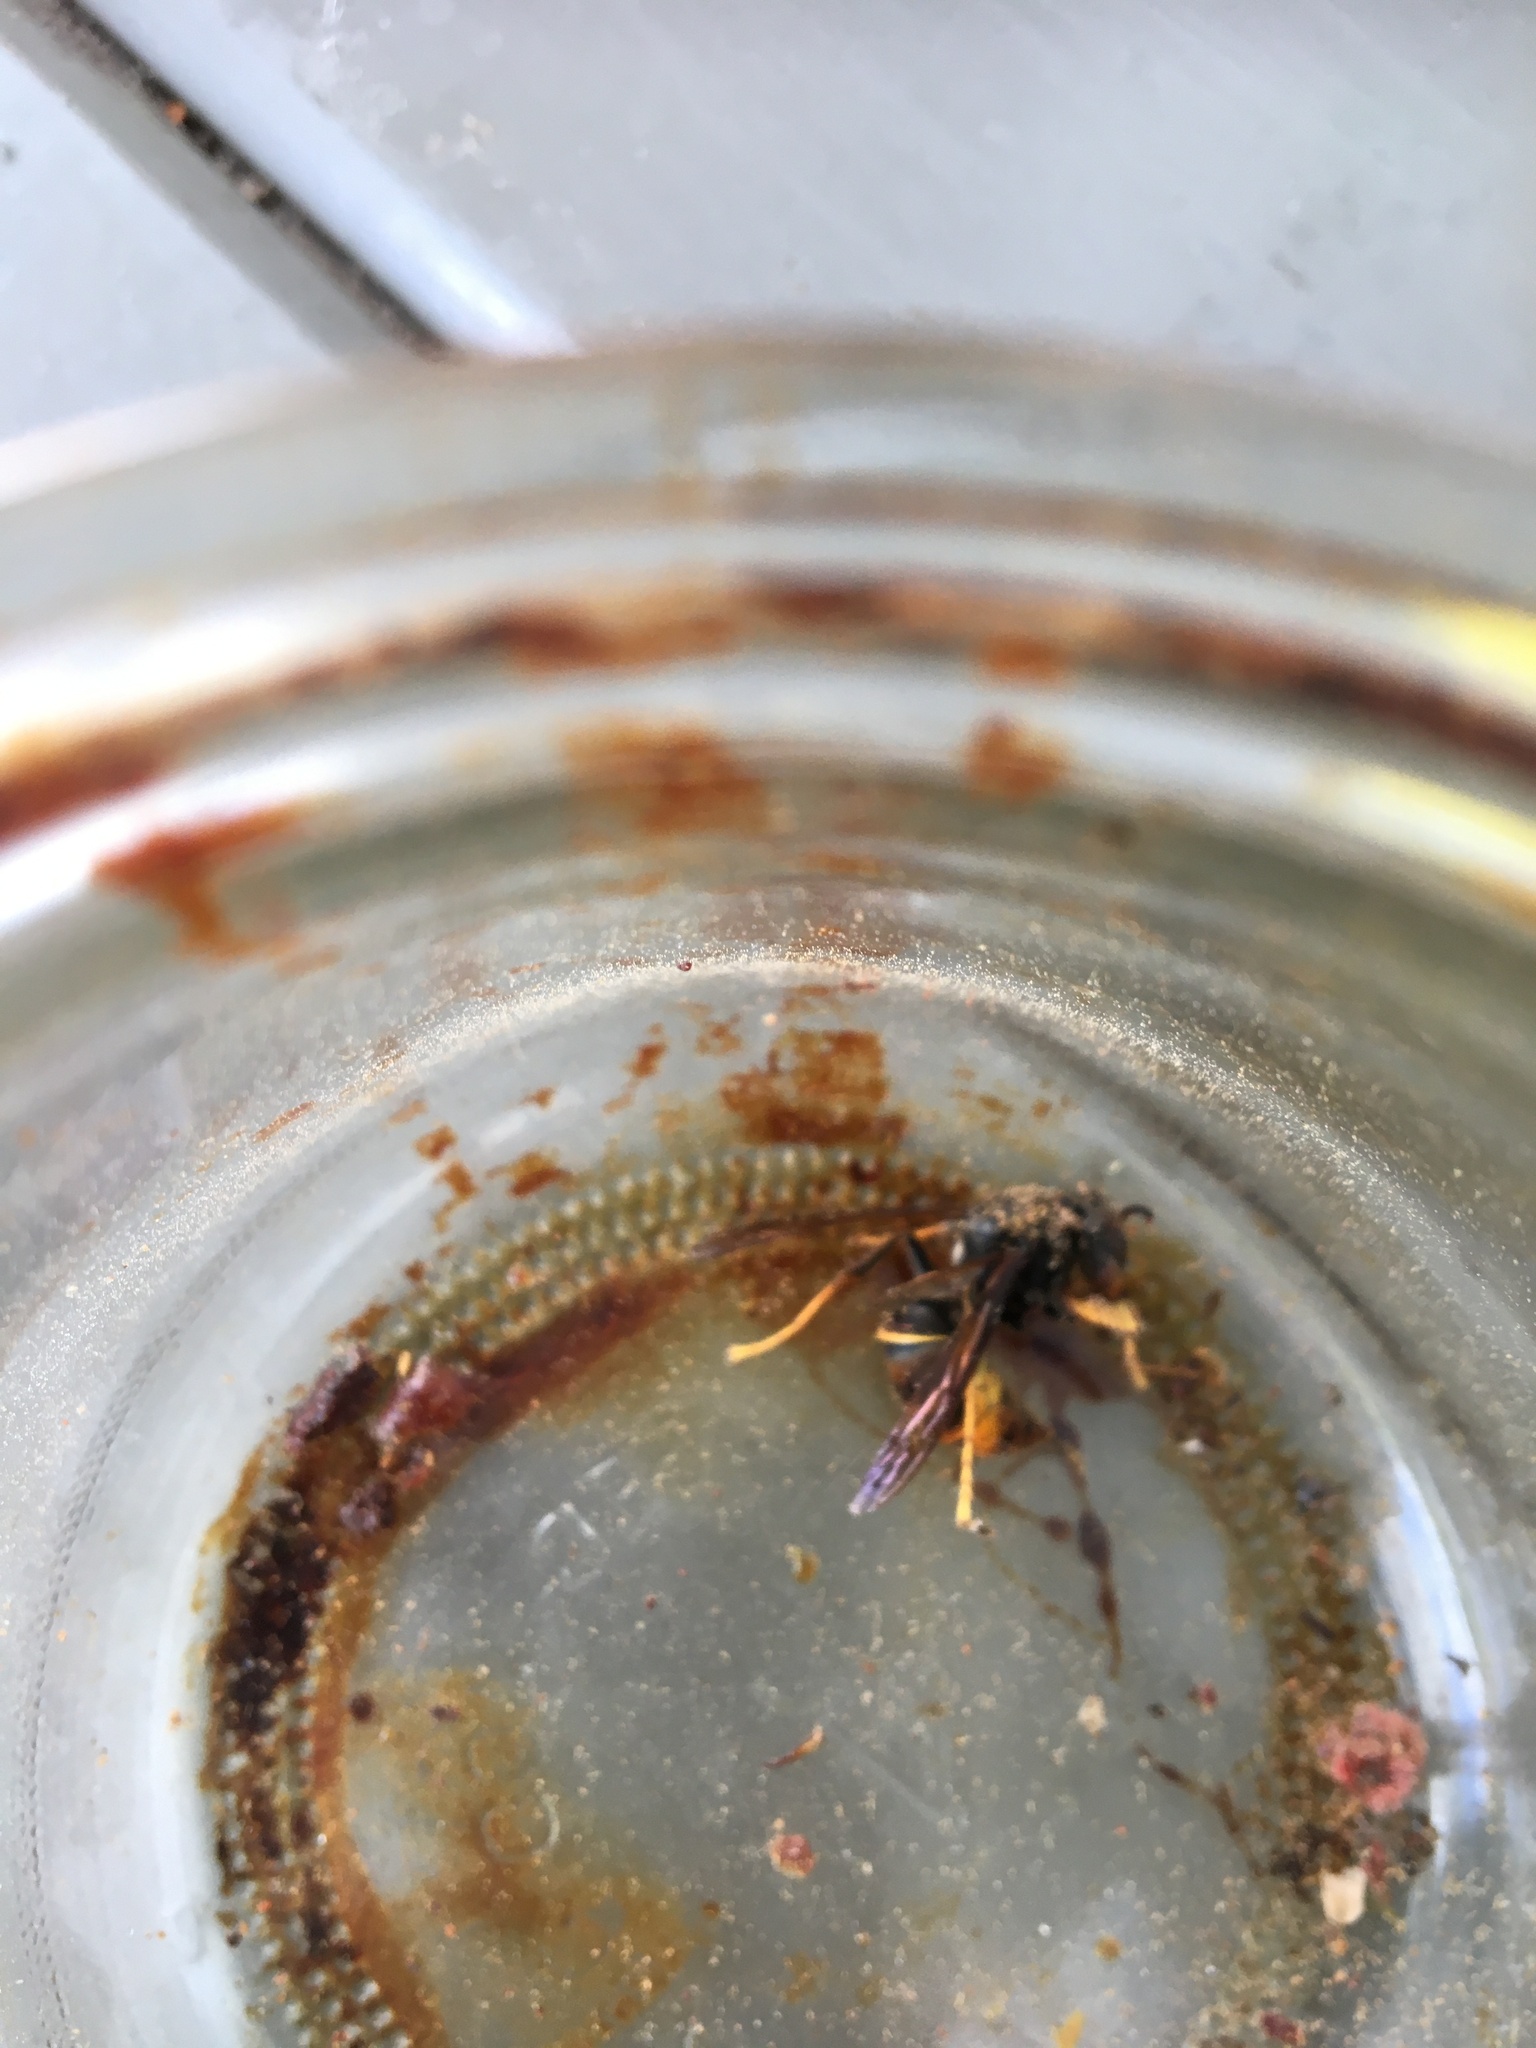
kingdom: Animalia
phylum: Arthropoda
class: Insecta
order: Hymenoptera
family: Vespidae
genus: Vespa
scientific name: Vespa velutina
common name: Asian hornet
